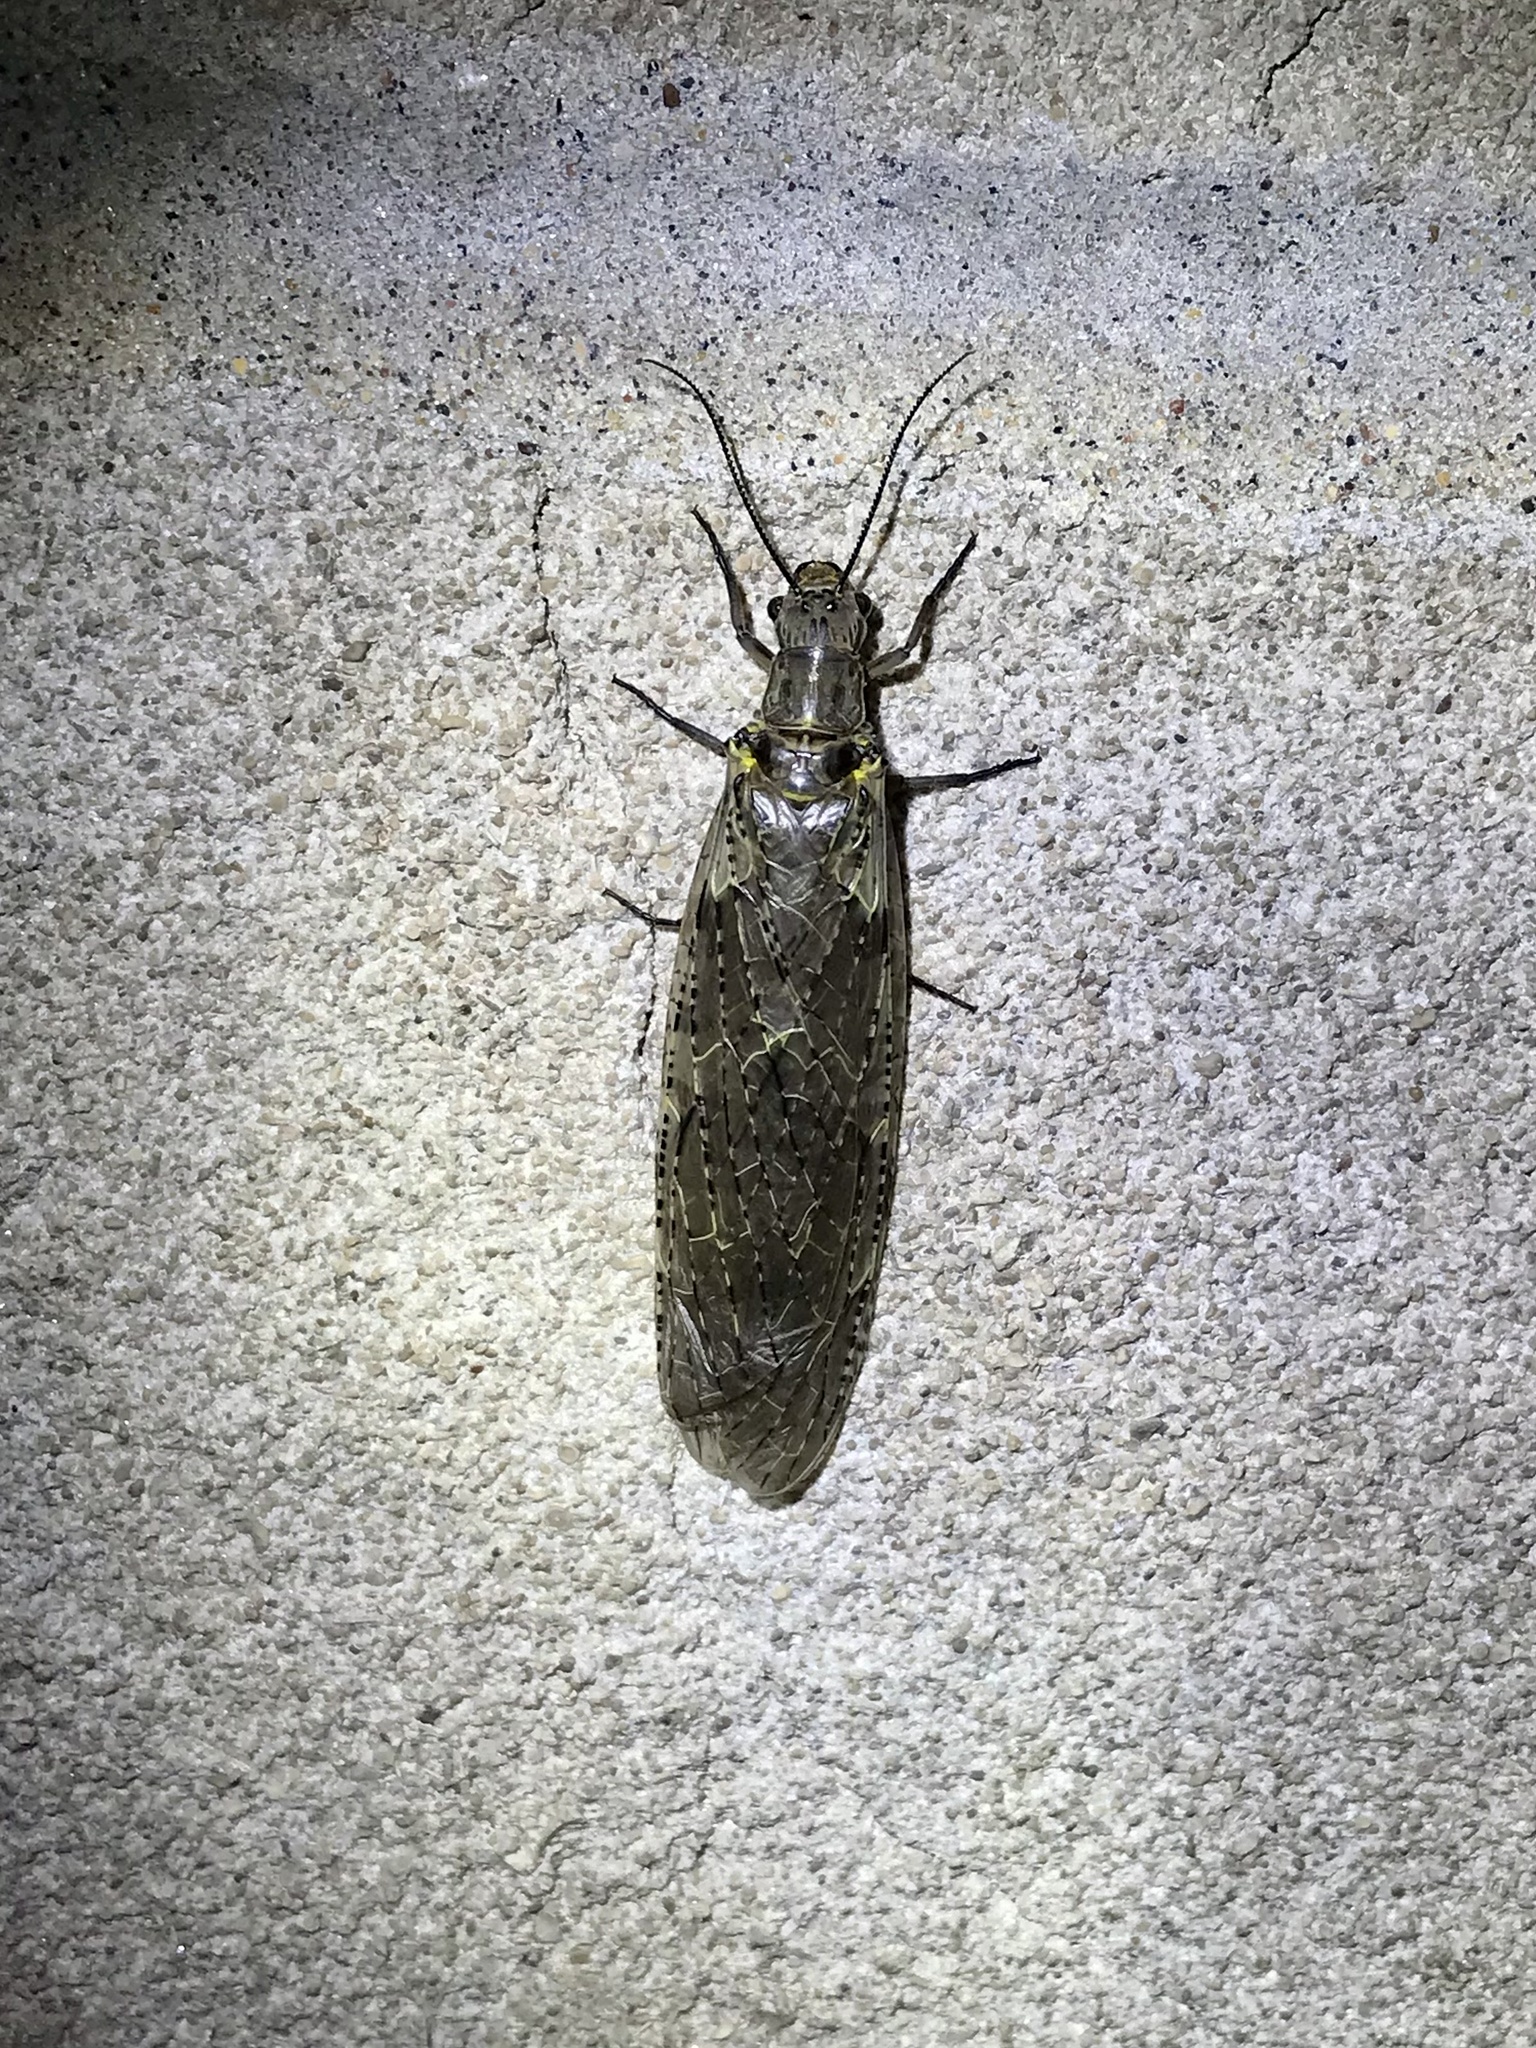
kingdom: Animalia
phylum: Arthropoda
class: Insecta
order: Megaloptera
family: Corydalidae
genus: Chauliodes
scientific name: Chauliodes rastricornis
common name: Spring fishfly
